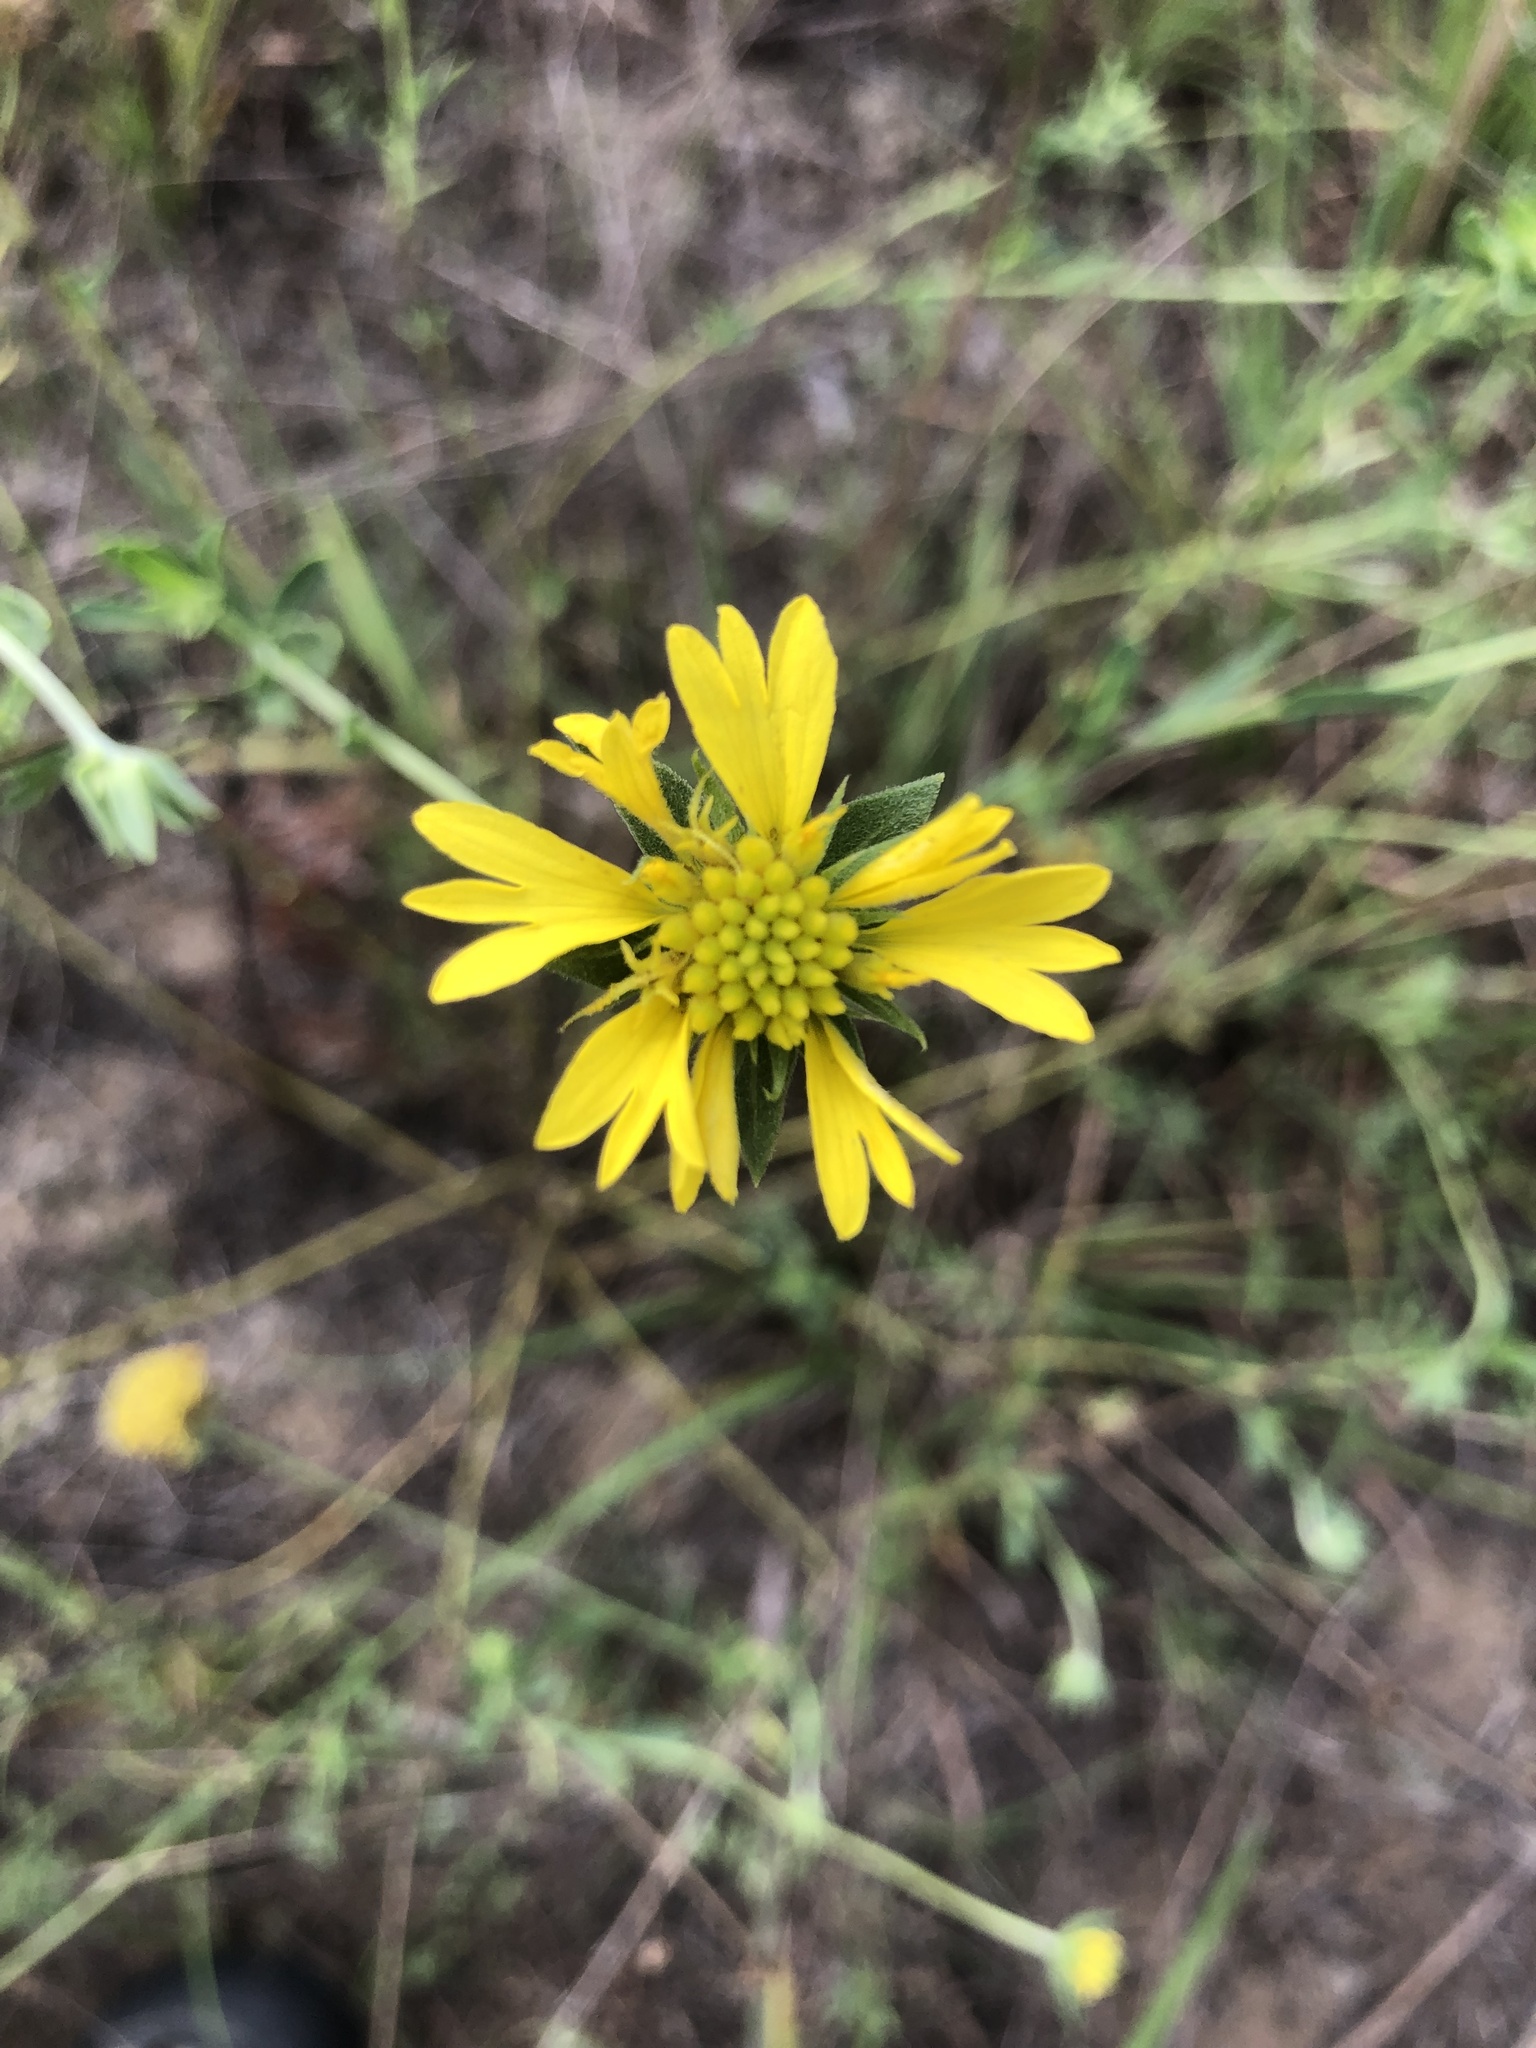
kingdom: Plantae
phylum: Tracheophyta
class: Magnoliopsida
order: Asterales
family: Asteraceae
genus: Gaillardia
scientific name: Gaillardia aestivalis
